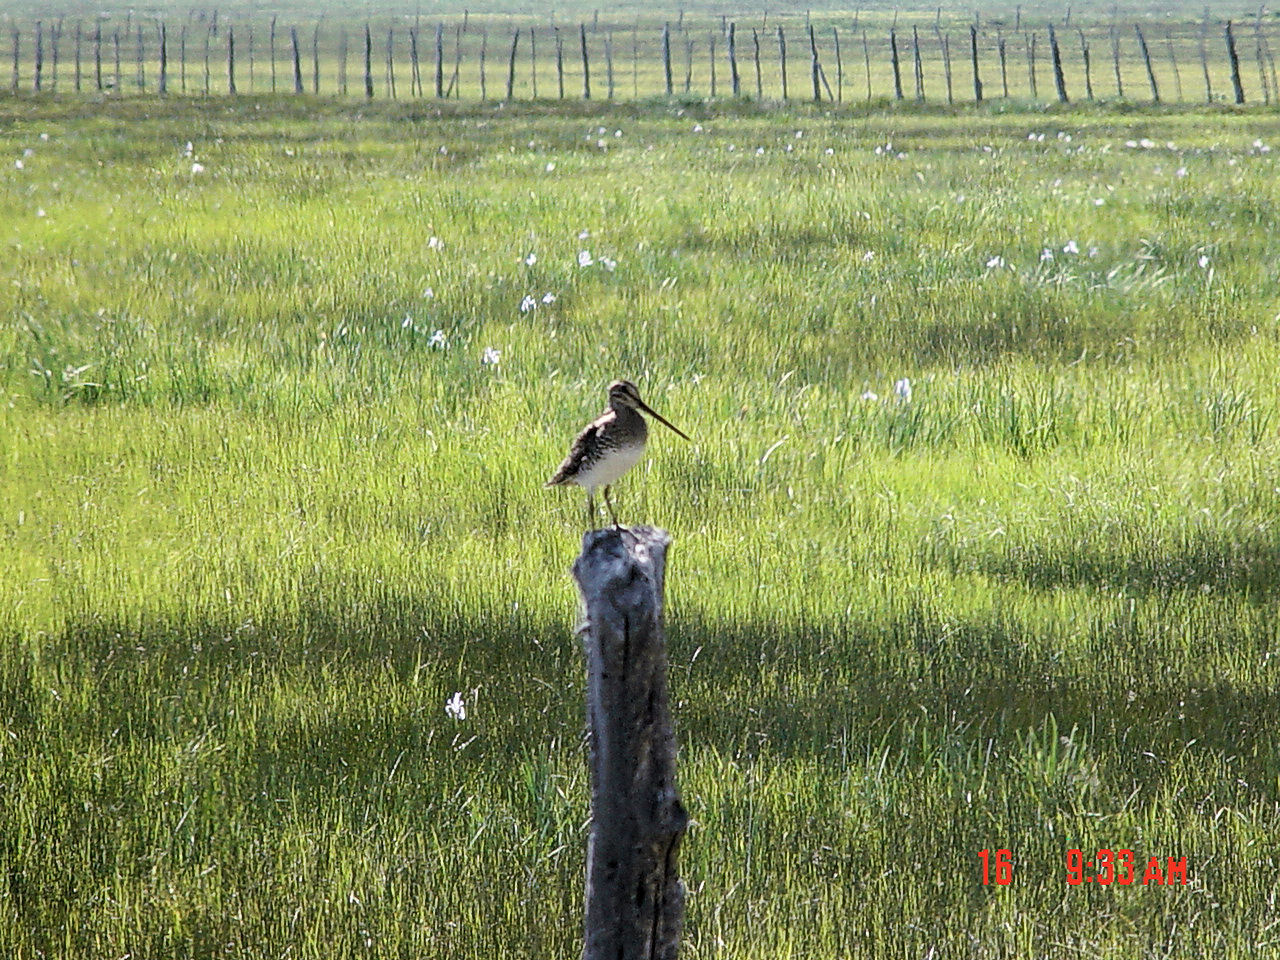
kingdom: Animalia
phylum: Chordata
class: Aves
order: Charadriiformes
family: Scolopacidae
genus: Gallinago
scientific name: Gallinago delicata
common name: Wilson's snipe
